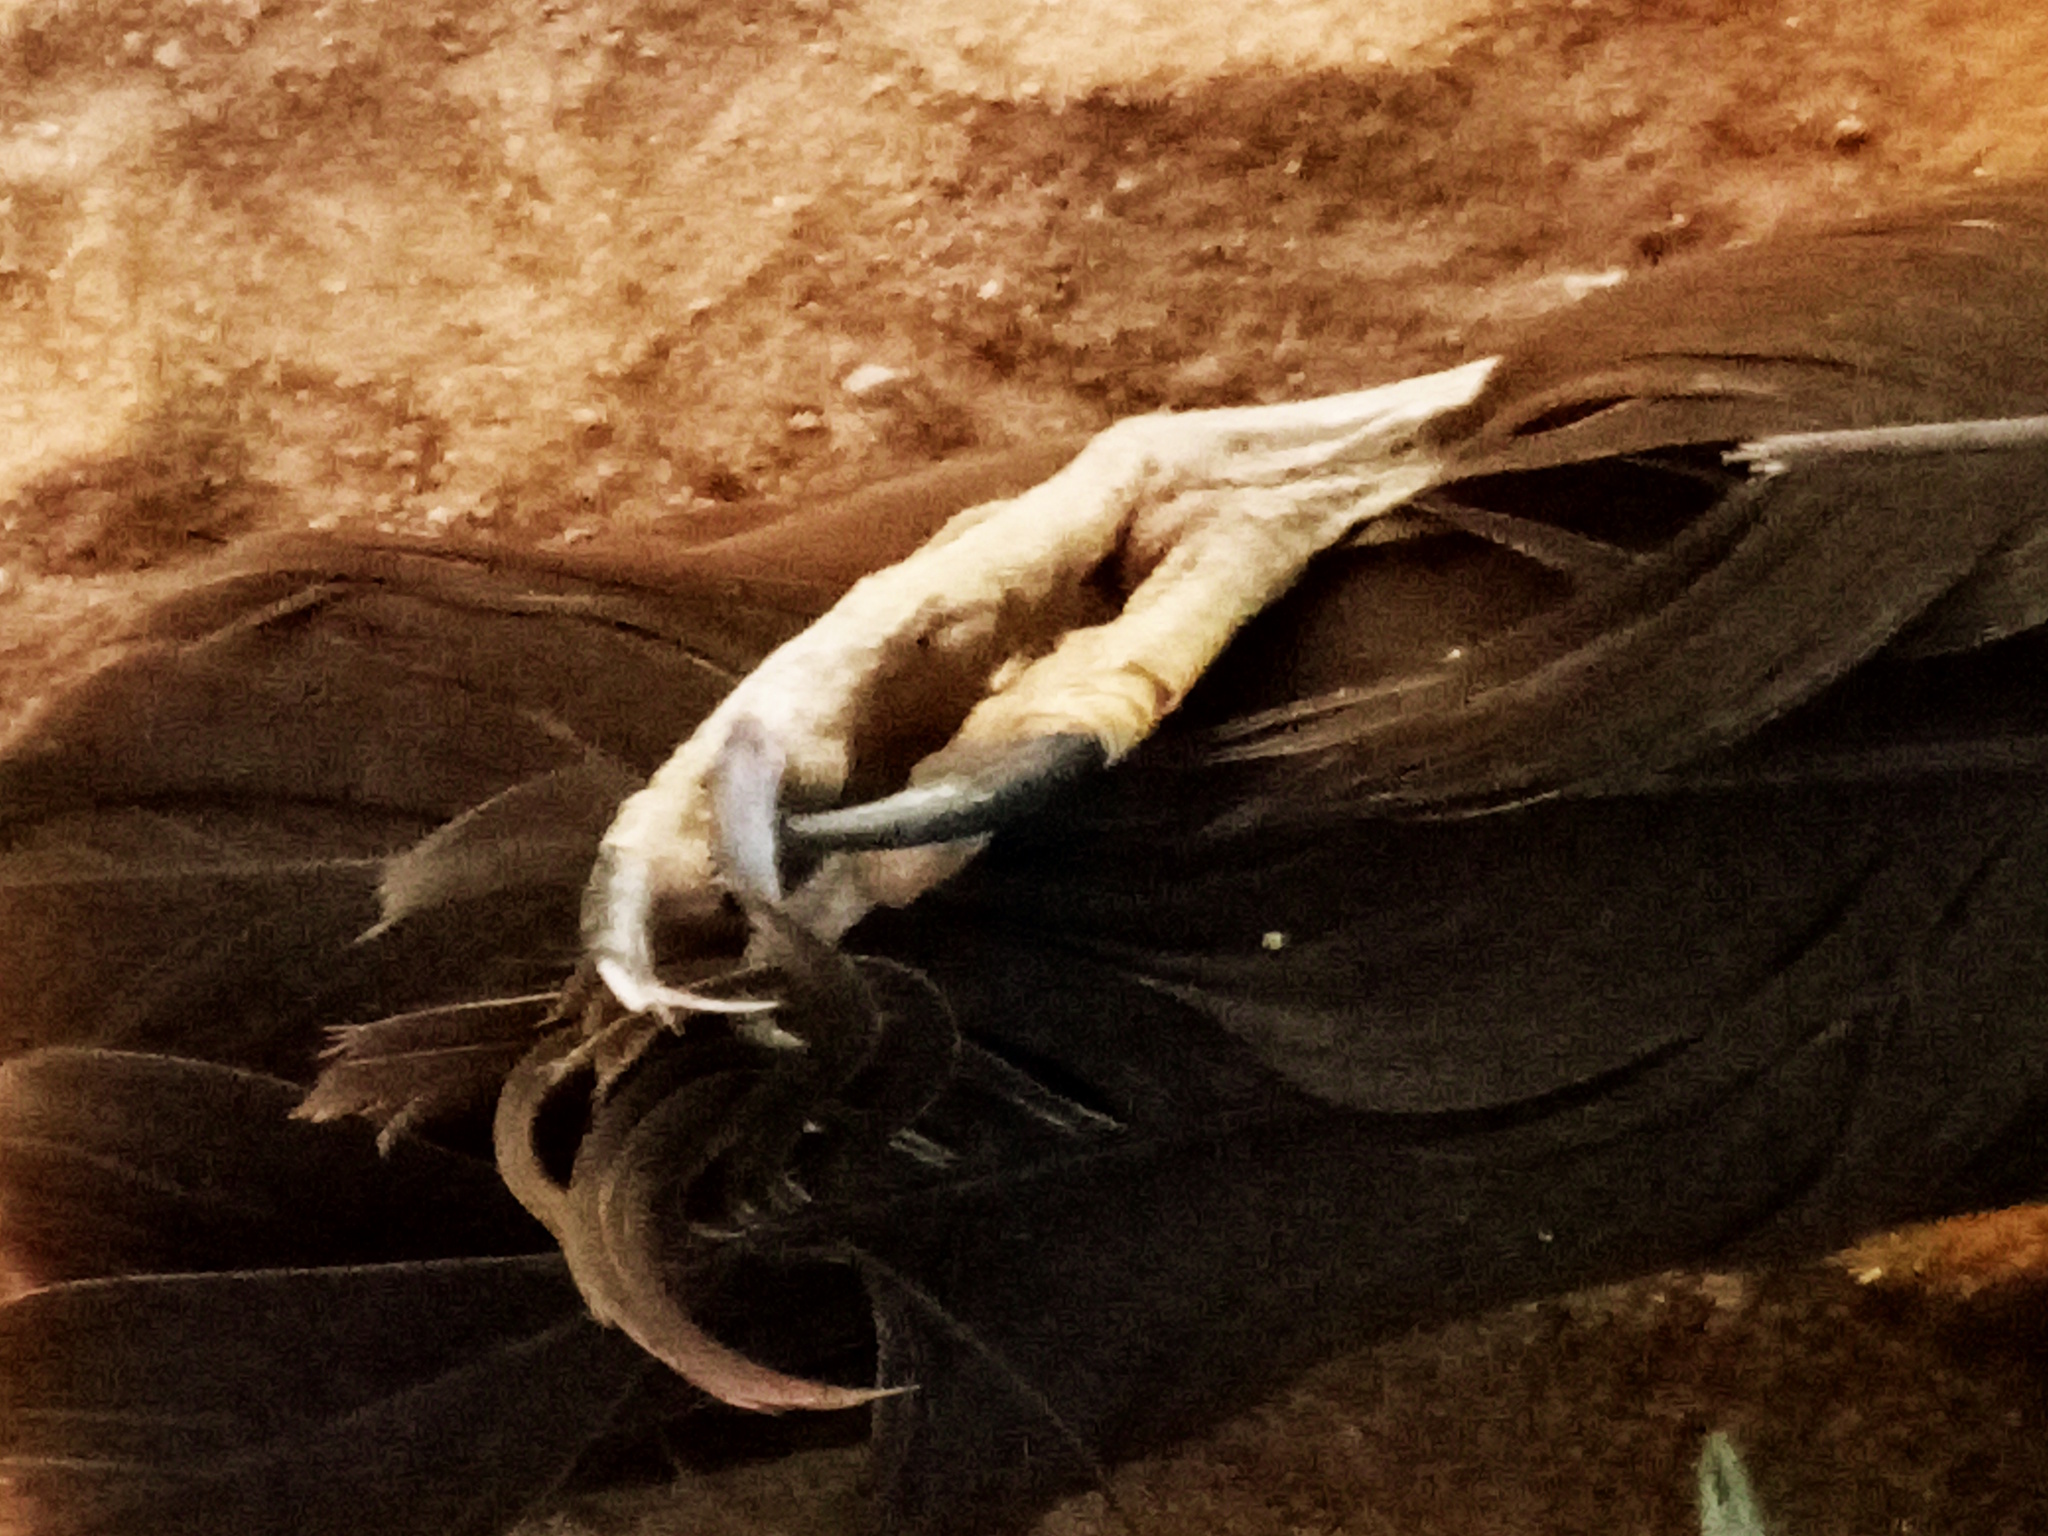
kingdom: Animalia
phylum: Chordata
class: Aves
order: Accipitriformes
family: Accipitridae
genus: Circus
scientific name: Circus aeruginosus
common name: Western marsh harrier
